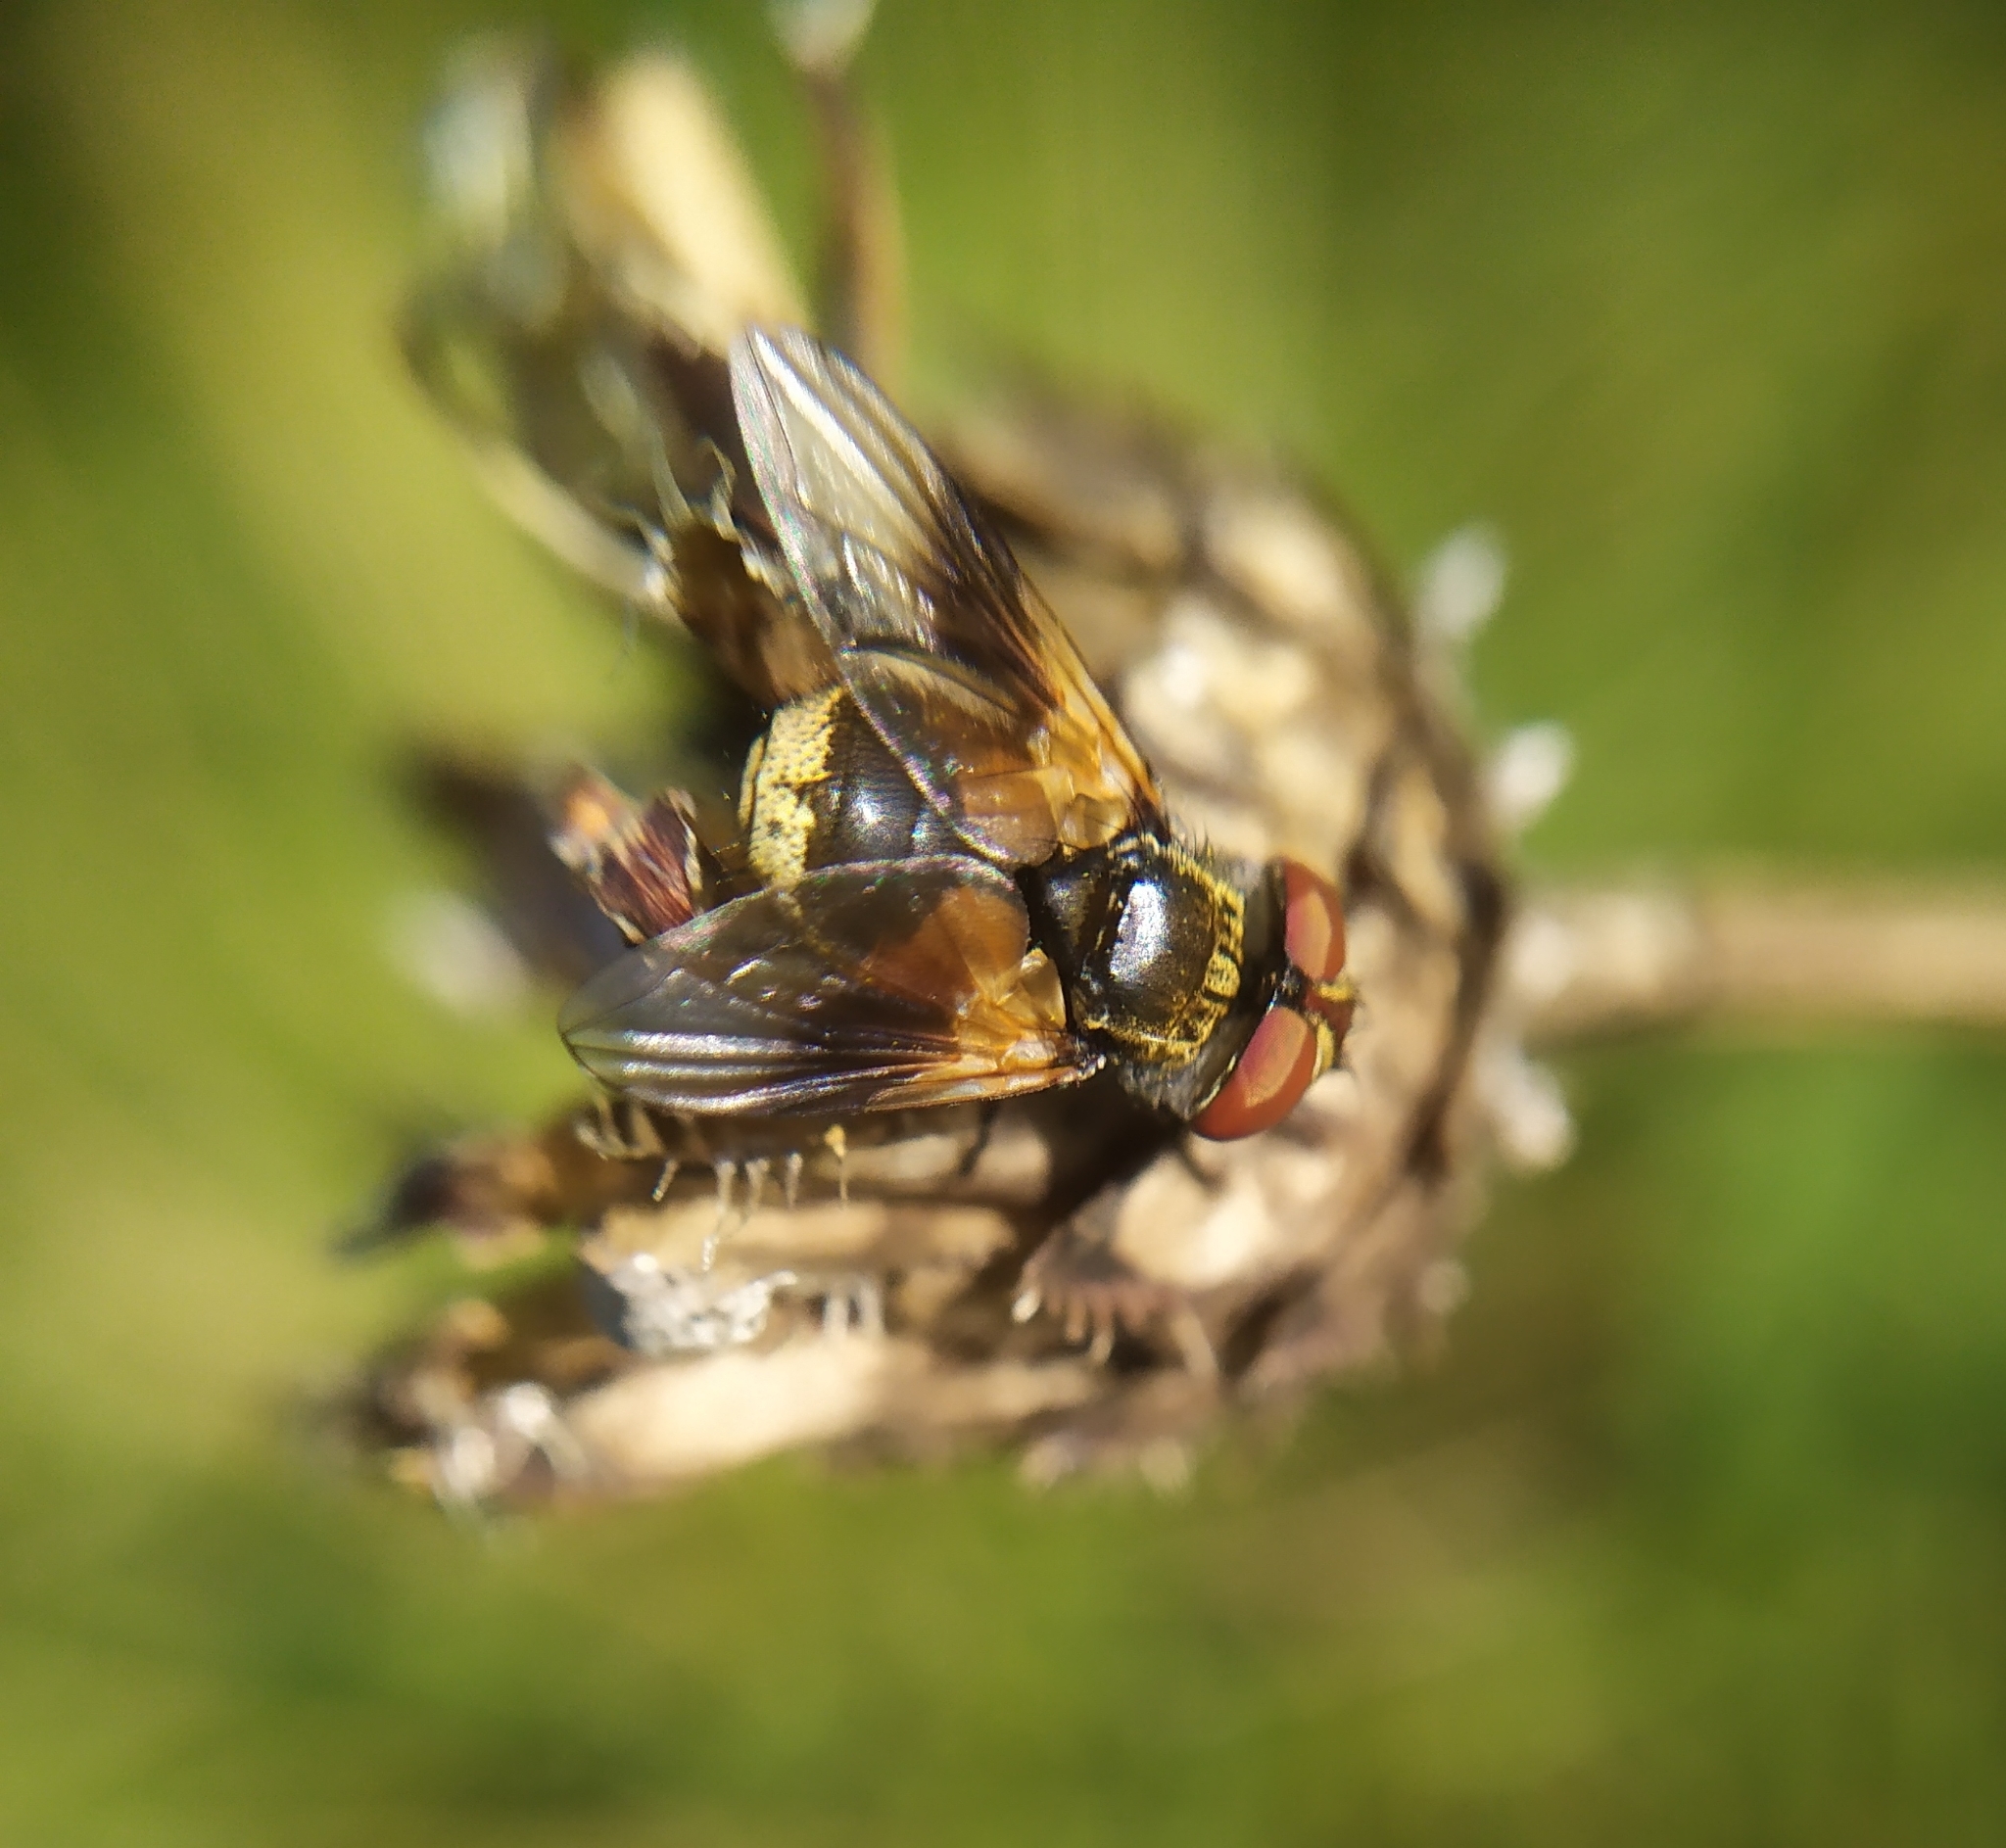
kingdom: Animalia
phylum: Arthropoda
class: Insecta
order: Diptera
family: Tachinidae
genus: Ectophasia
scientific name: Ectophasia crassipennis
